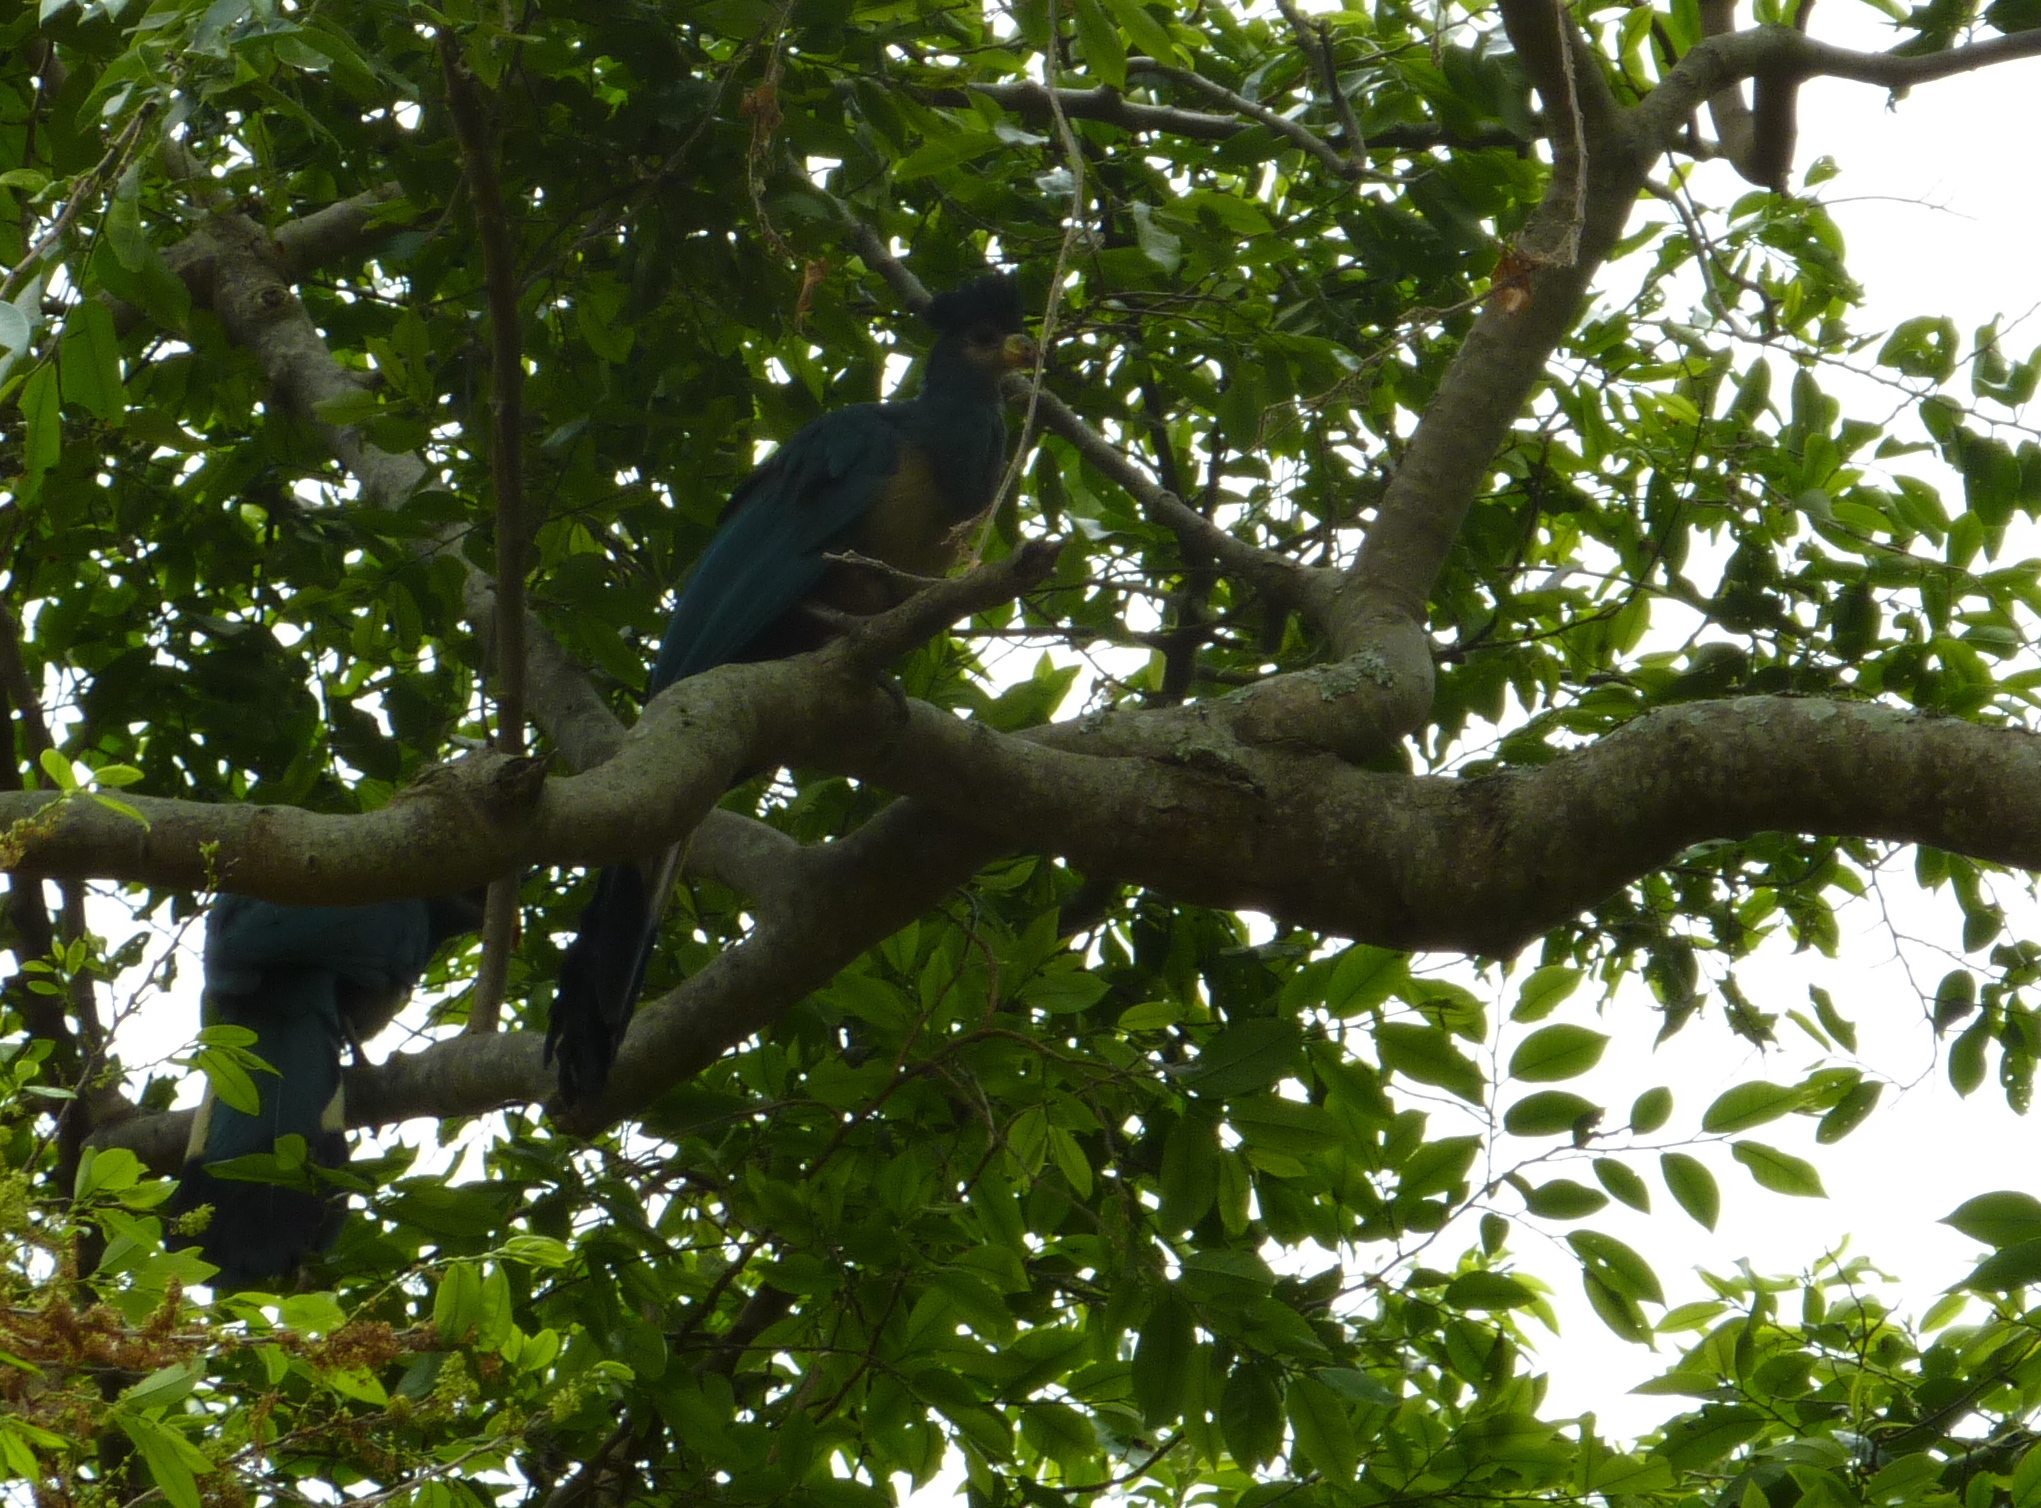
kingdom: Animalia
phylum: Chordata
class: Aves
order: Musophagiformes
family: Musophagidae
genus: Corythaeola
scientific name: Corythaeola cristata
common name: Great blue turaco
